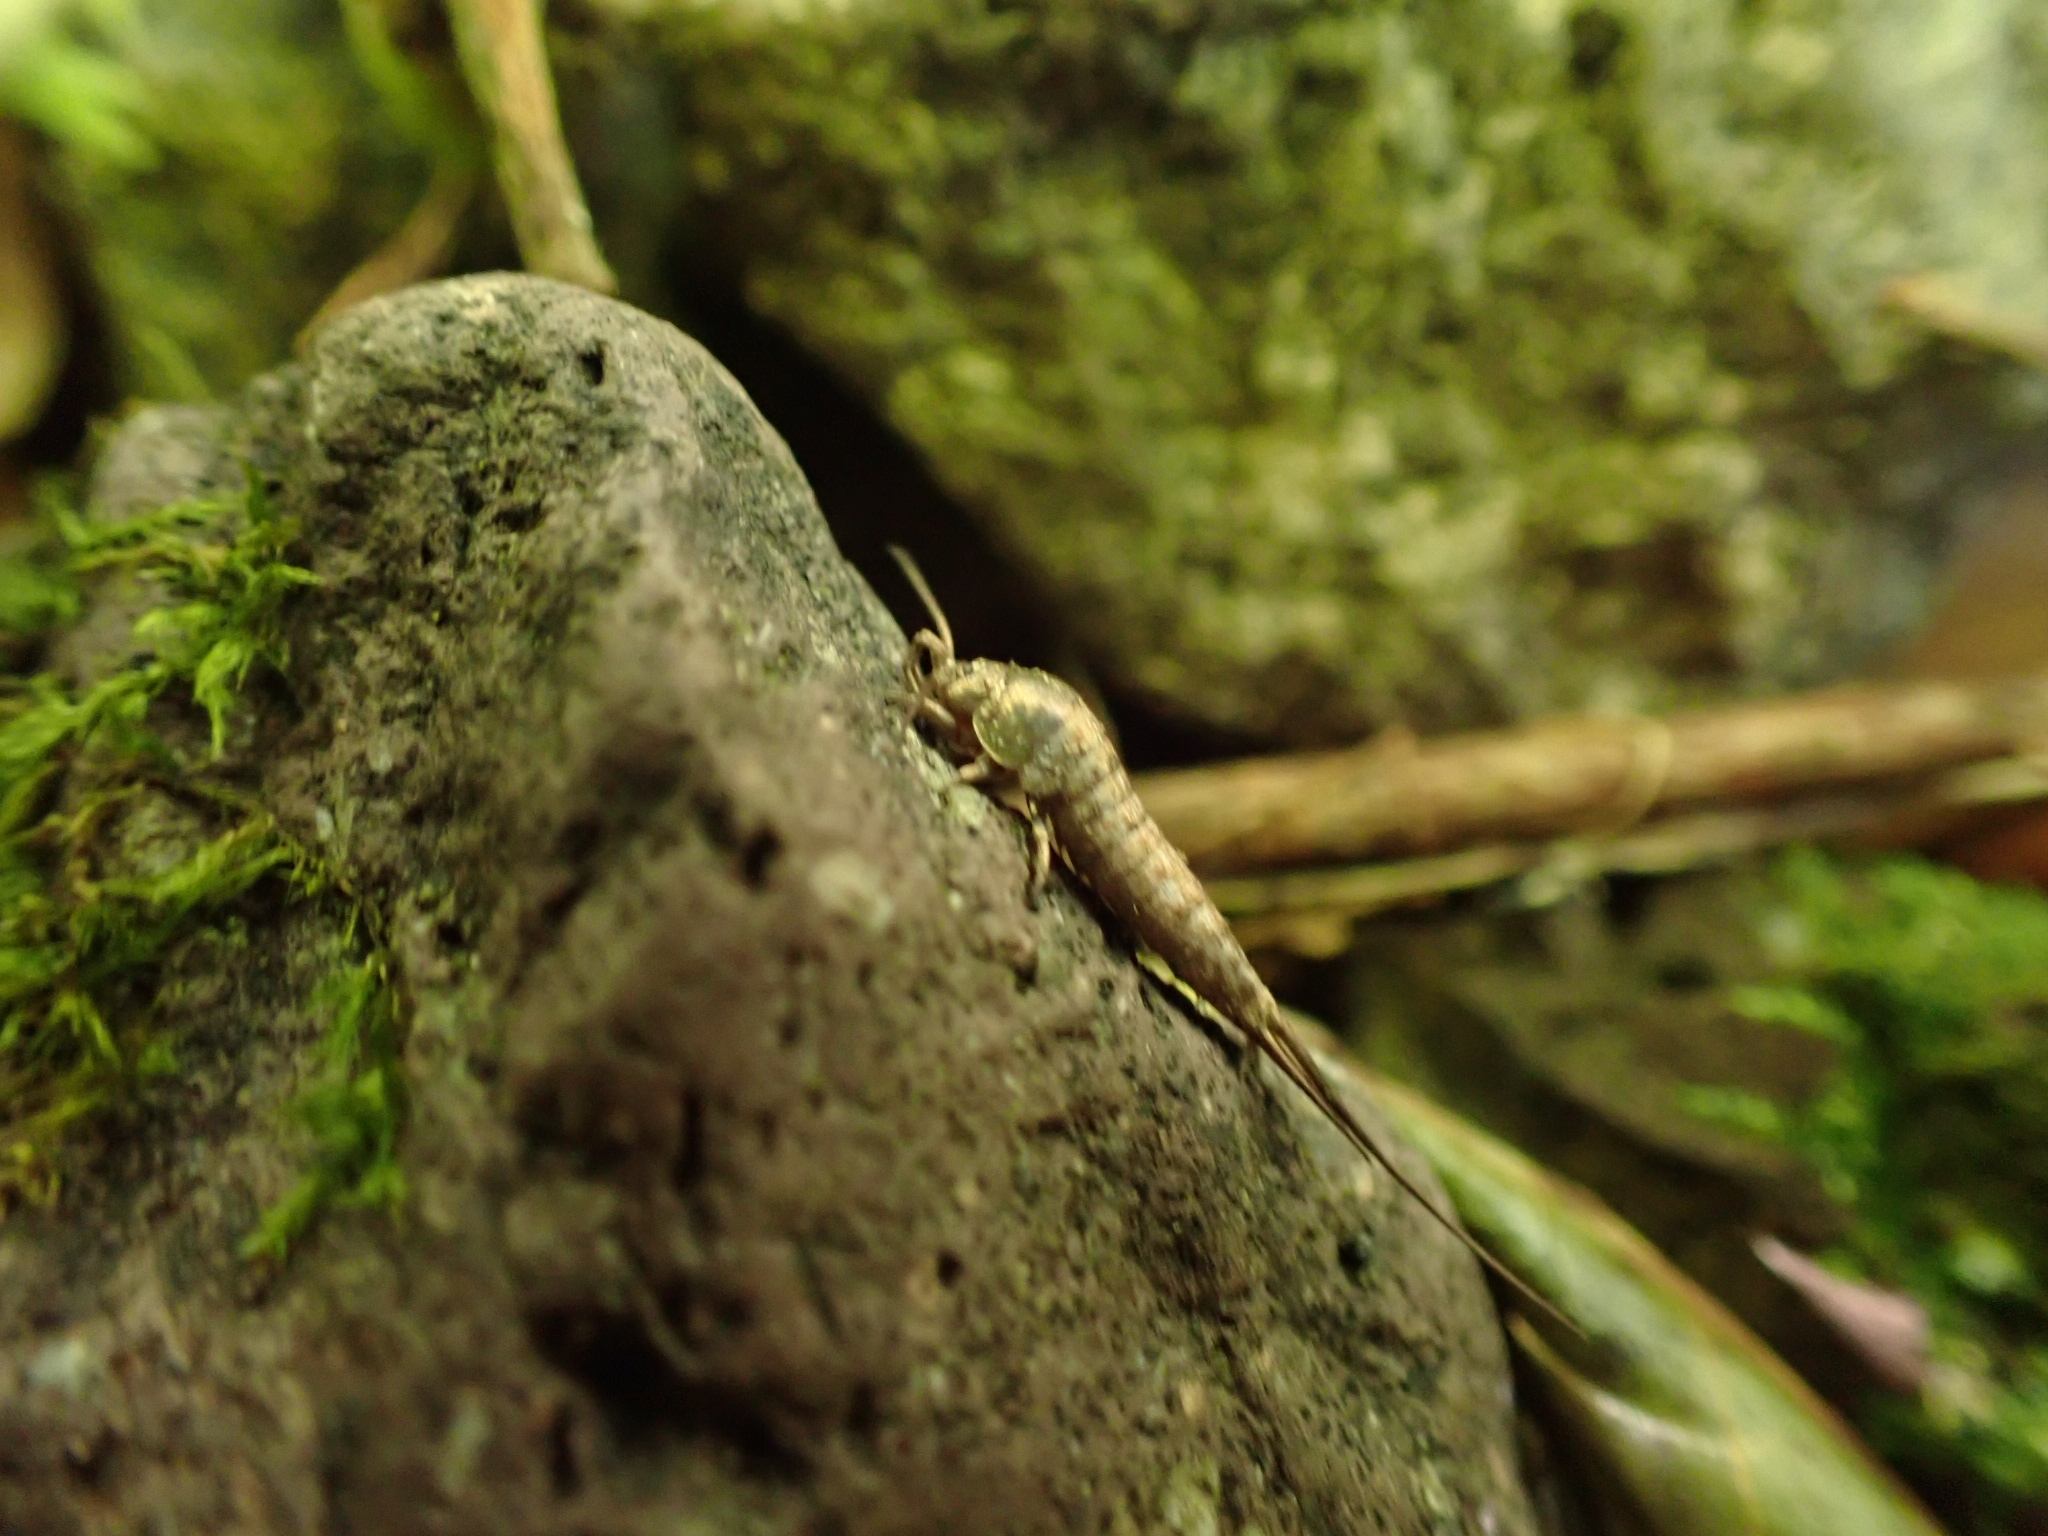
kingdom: Animalia
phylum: Arthropoda
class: Insecta
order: Archaeognatha
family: Machilidae
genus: Dilta
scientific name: Dilta hibernica
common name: Southern bristletail
